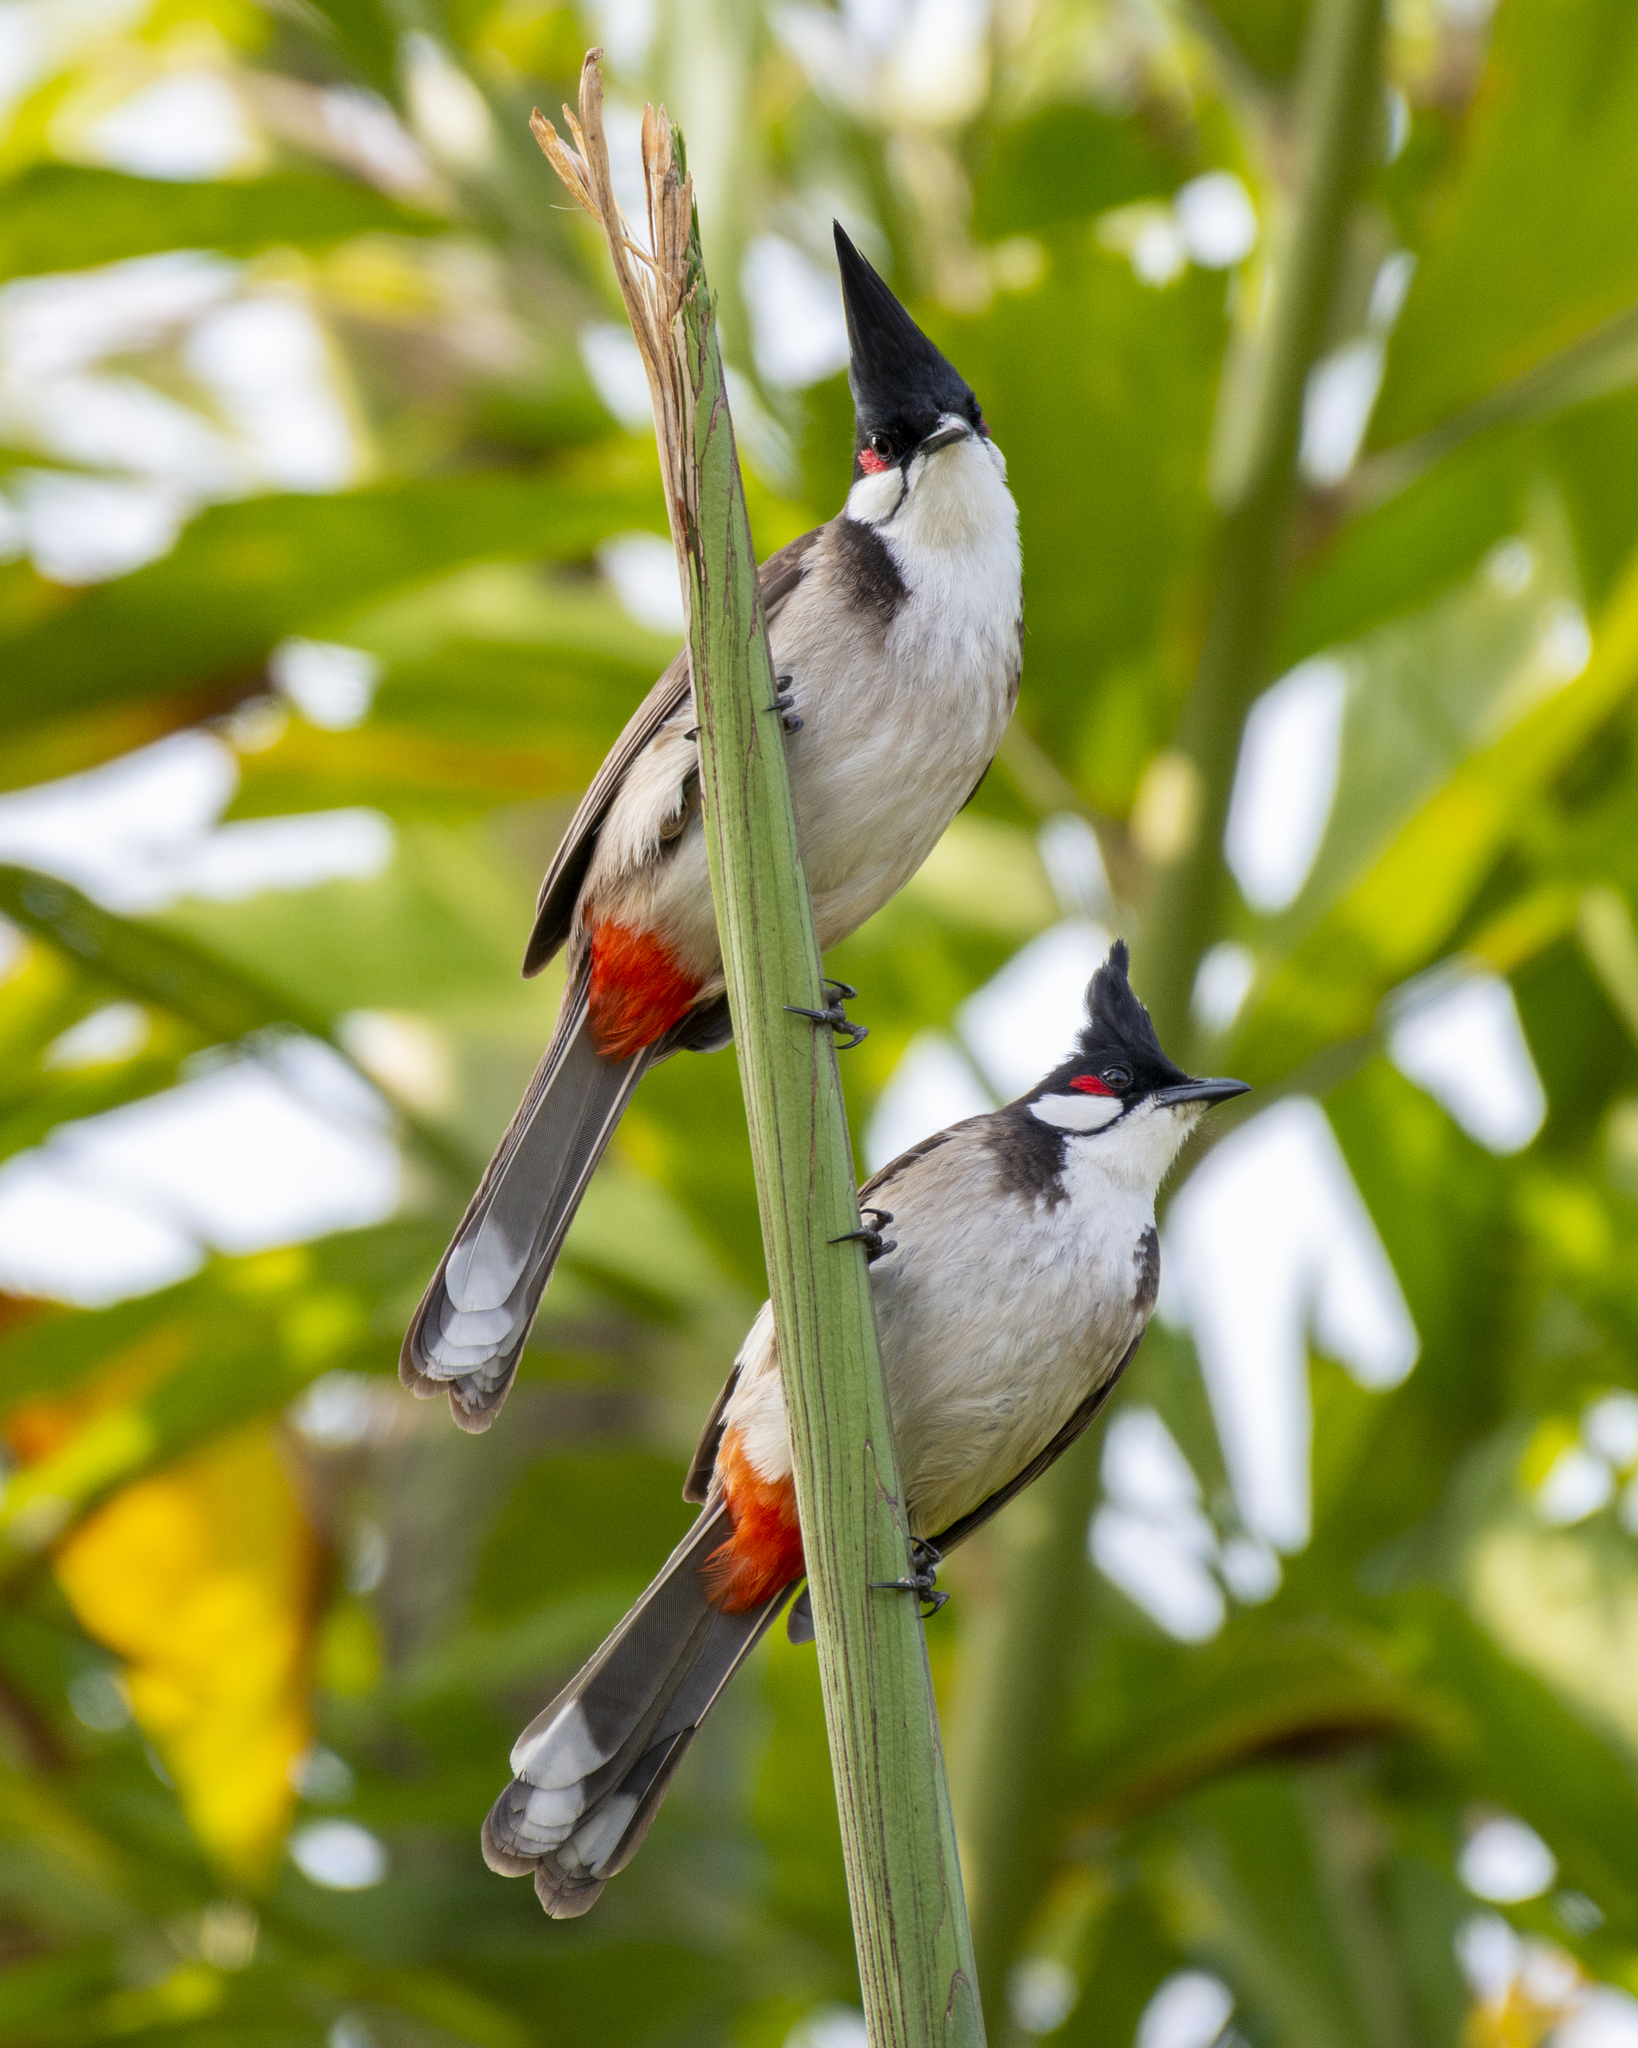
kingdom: Animalia
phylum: Chordata
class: Aves
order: Passeriformes
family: Pycnonotidae
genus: Pycnonotus
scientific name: Pycnonotus jocosus
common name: Red-whiskered bulbul
